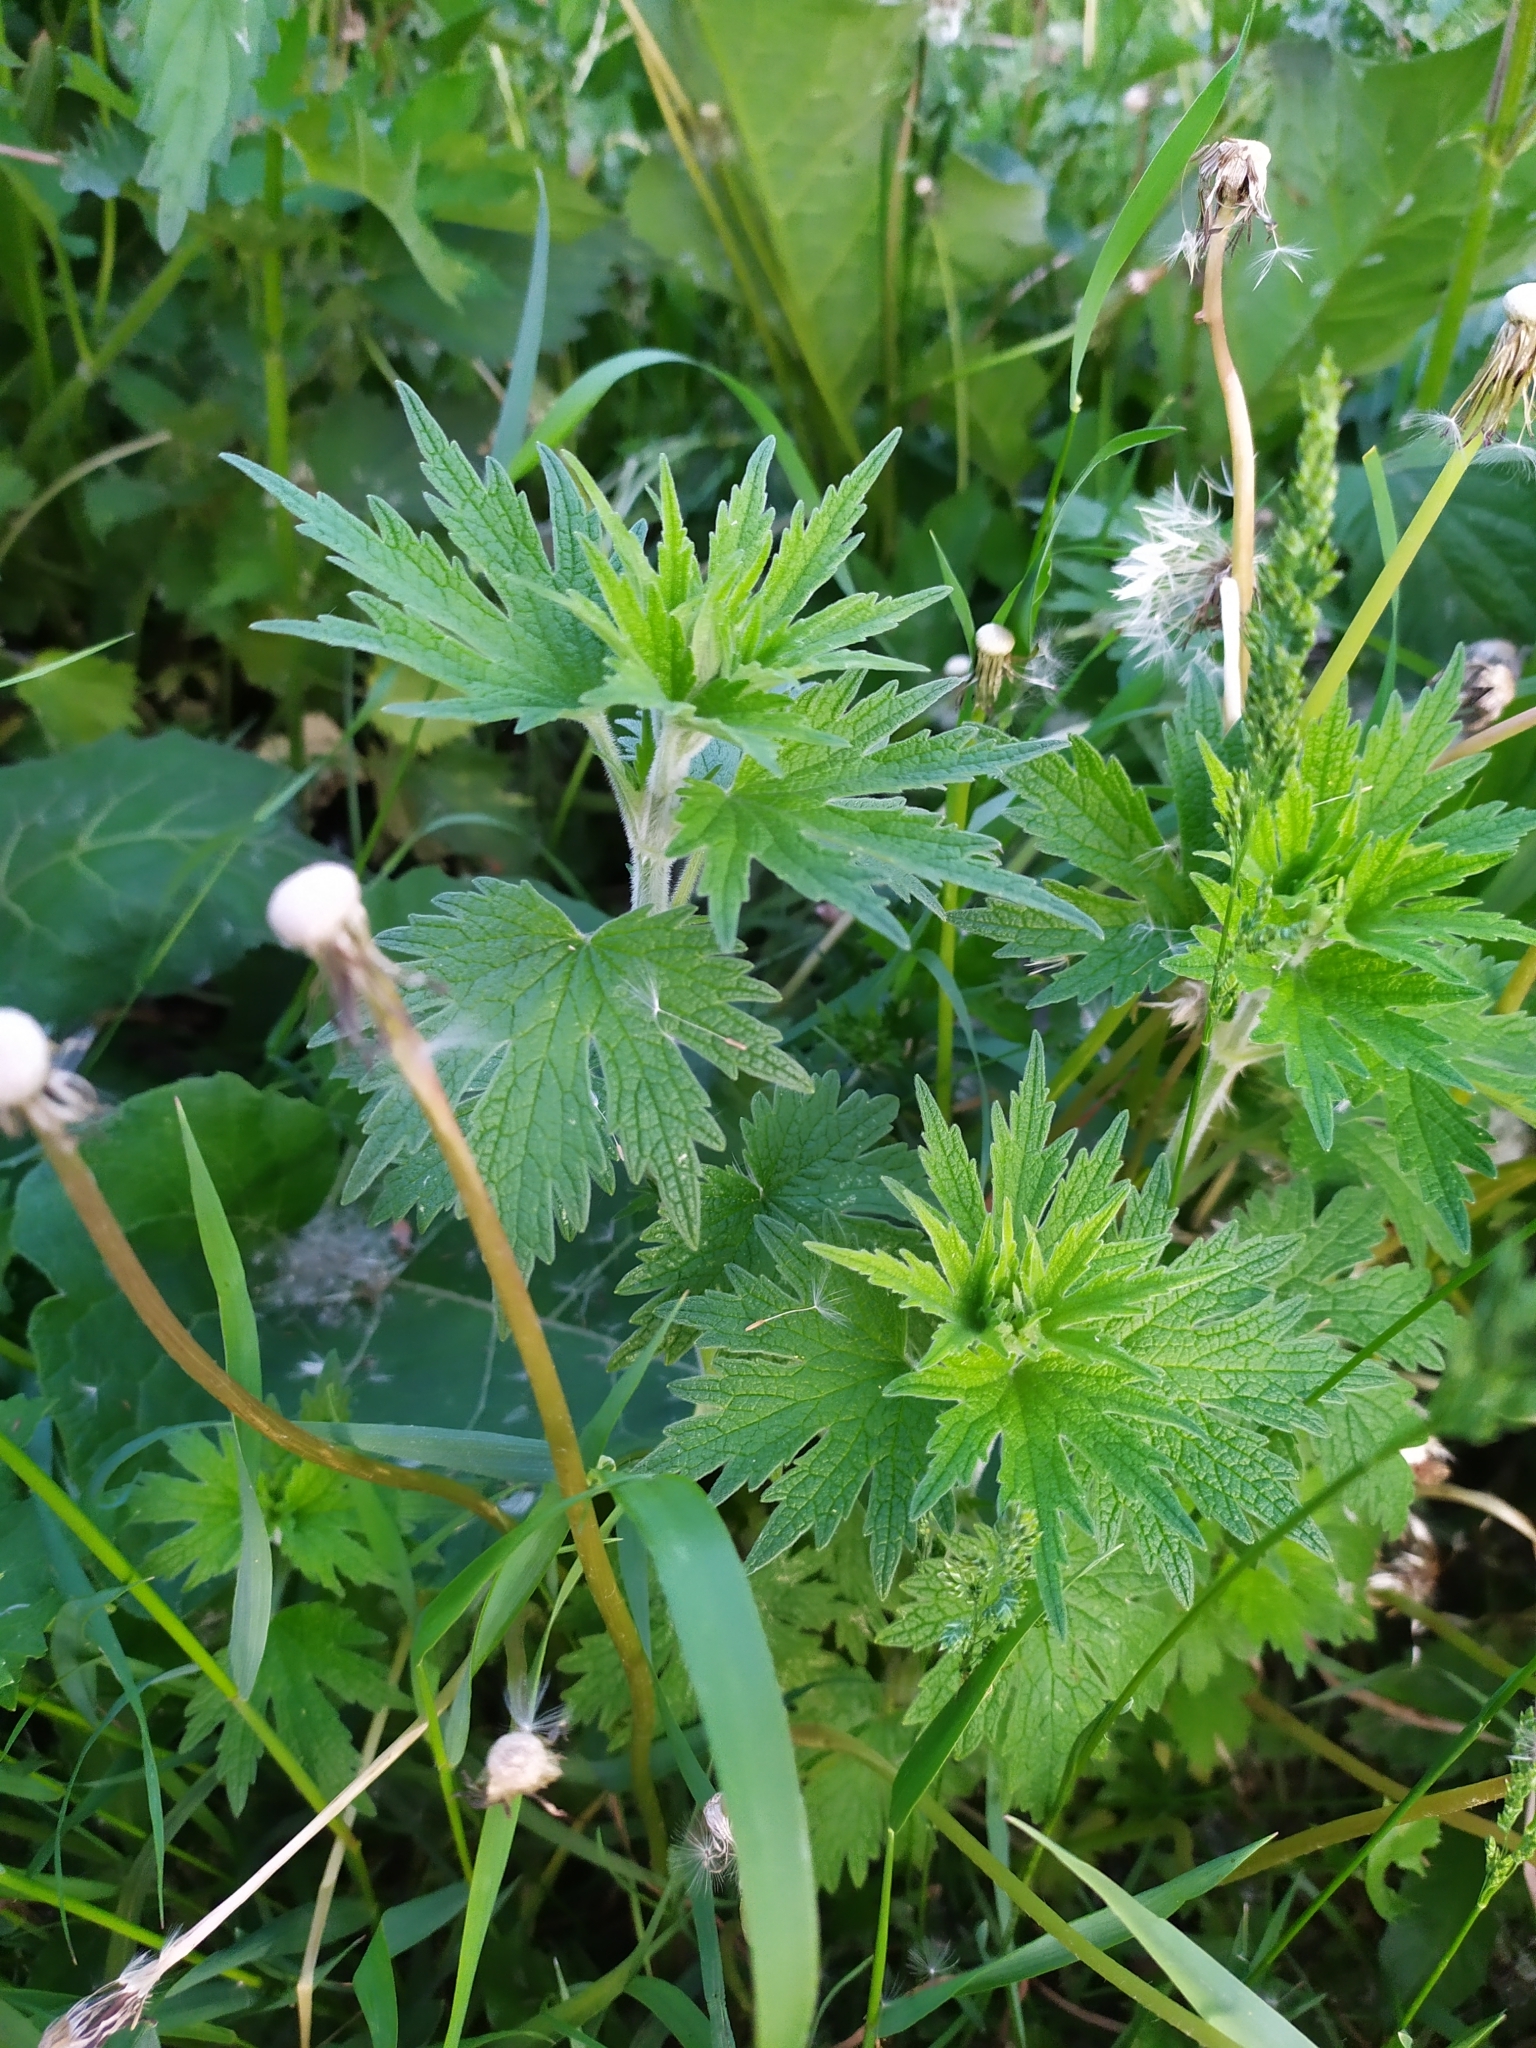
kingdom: Plantae
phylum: Tracheophyta
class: Magnoliopsida
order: Lamiales
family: Lamiaceae
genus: Leonurus
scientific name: Leonurus quinquelobatus
